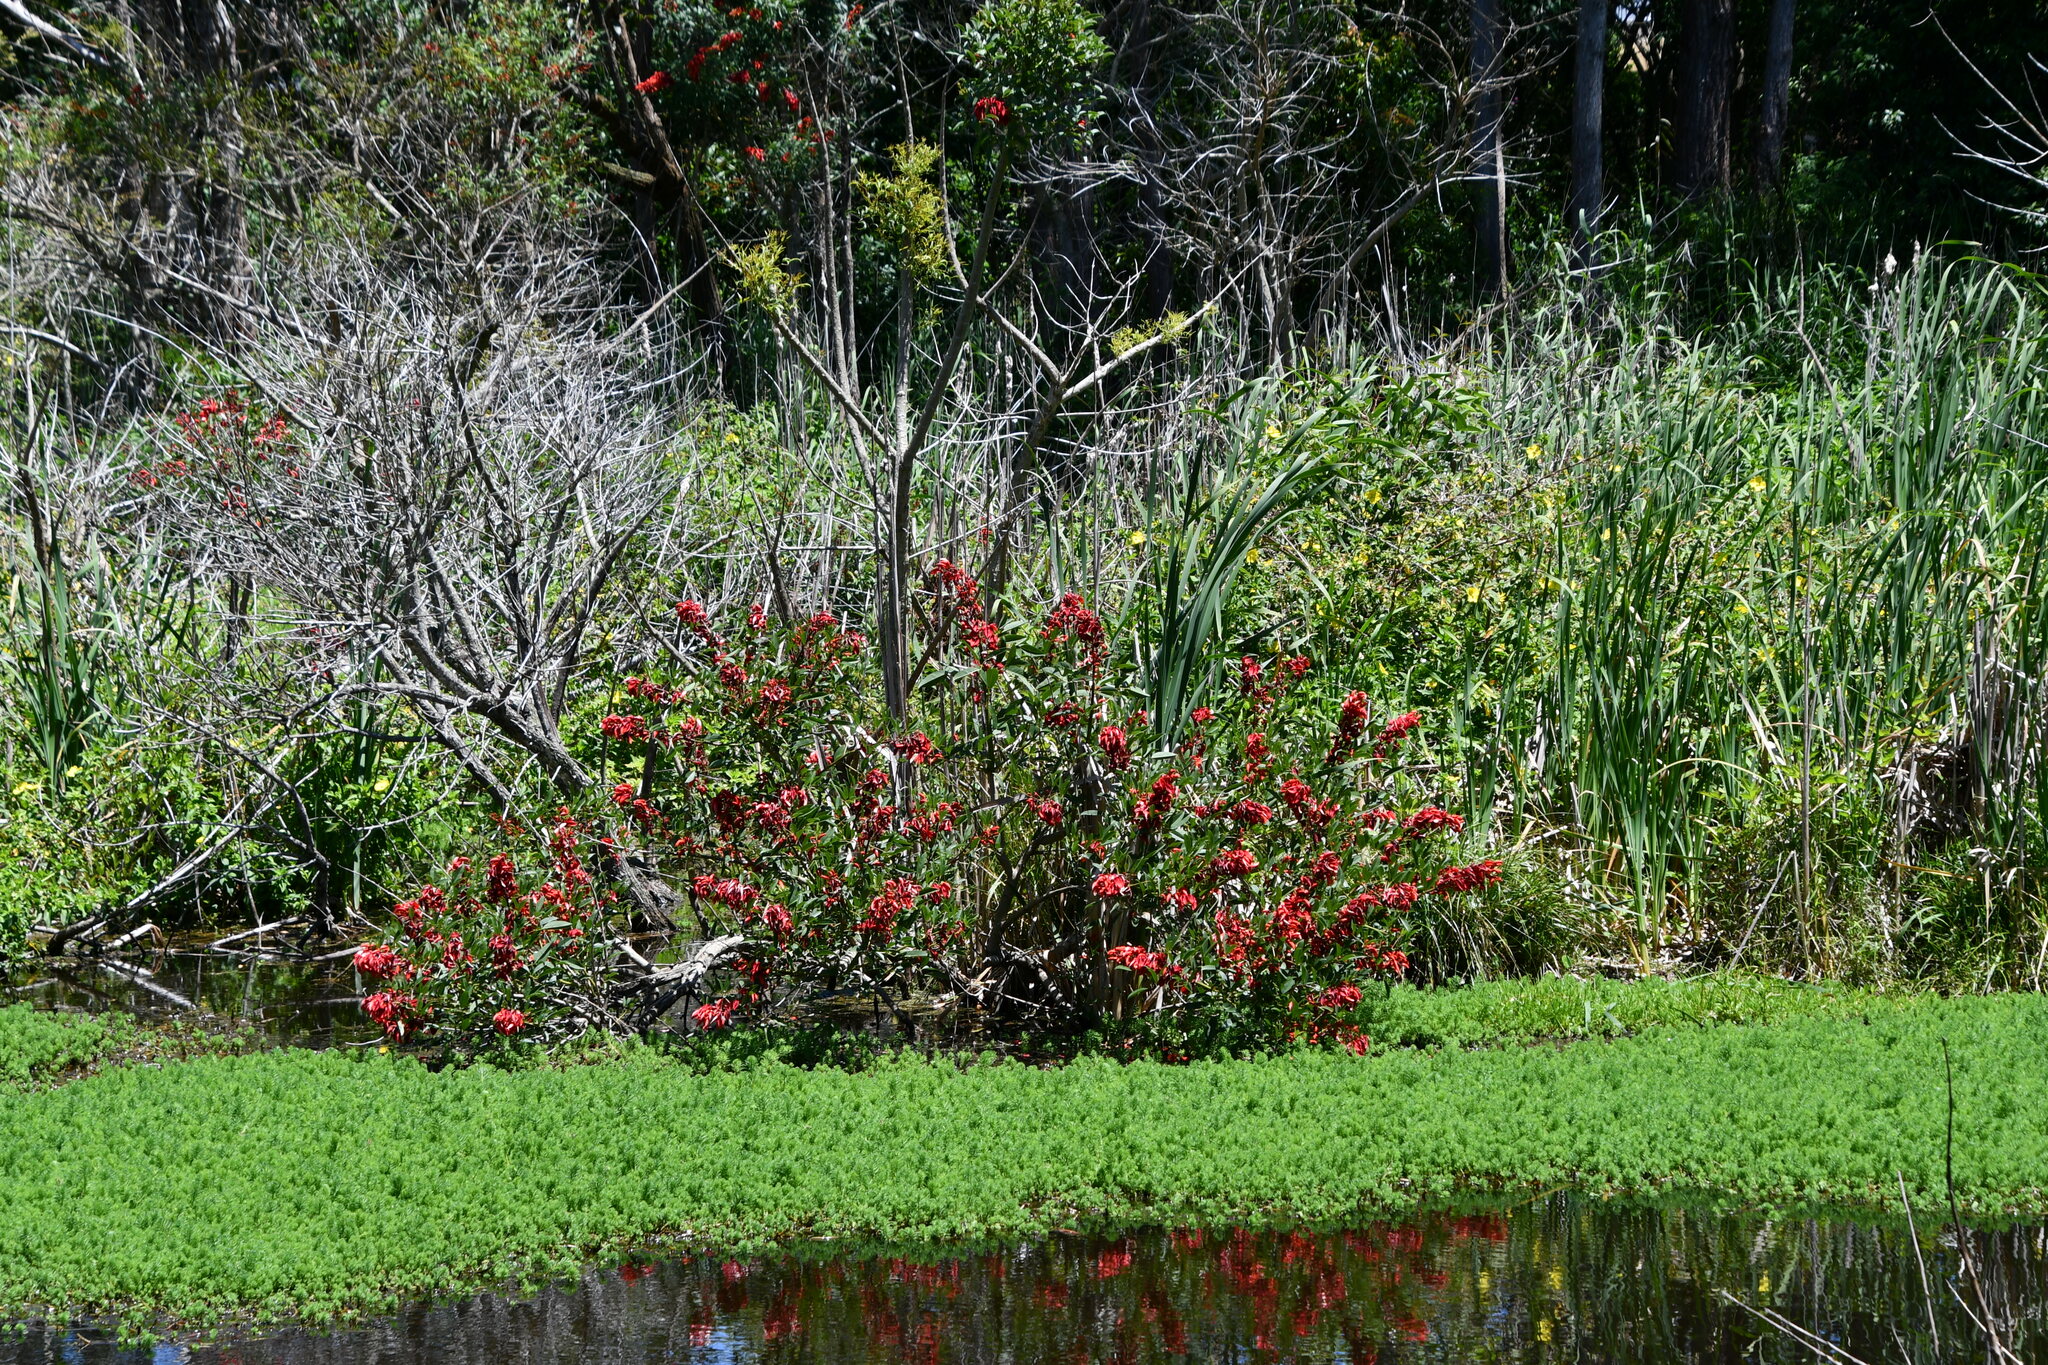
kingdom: Plantae
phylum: Tracheophyta
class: Magnoliopsida
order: Fabales
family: Fabaceae
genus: Erythrina
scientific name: Erythrina crista-galli
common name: Cockspur coral tree
